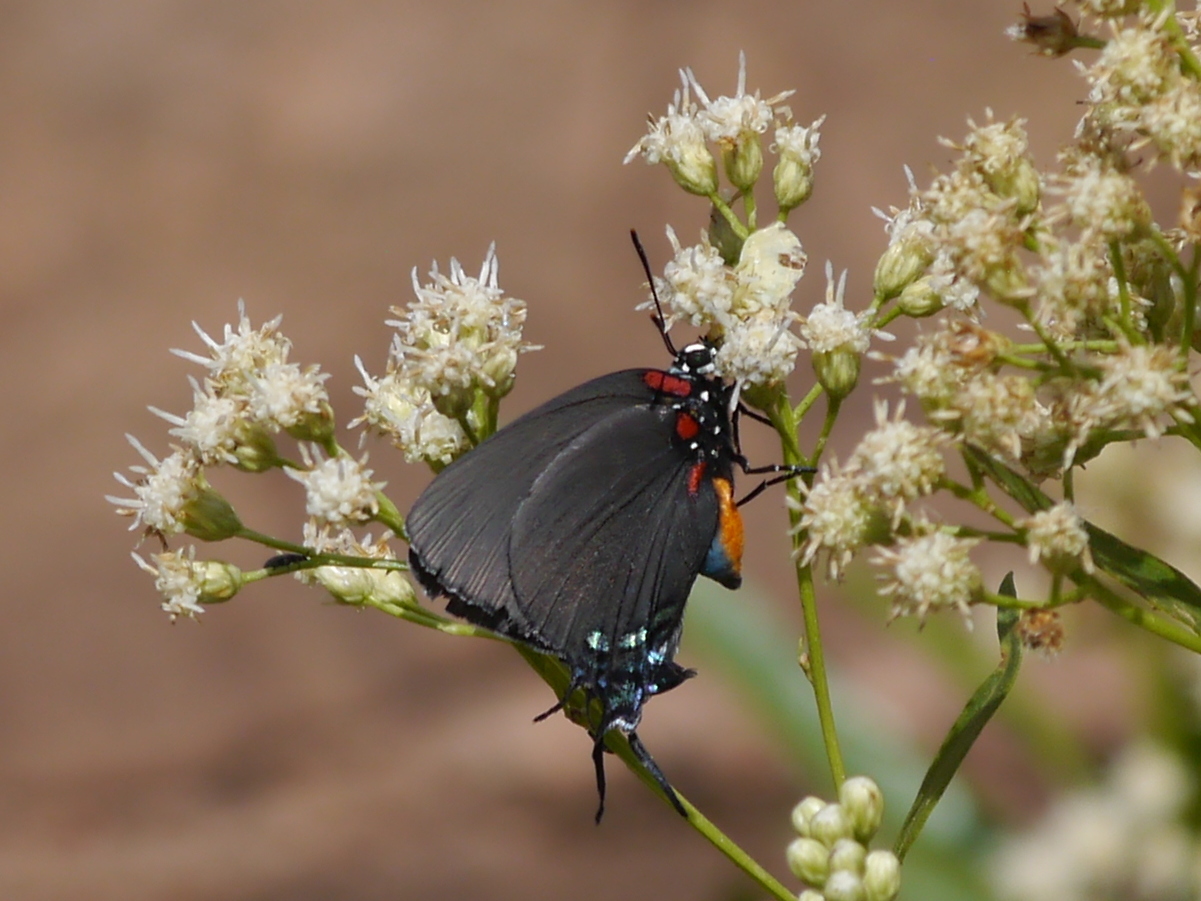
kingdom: Animalia
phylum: Arthropoda
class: Insecta
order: Lepidoptera
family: Lycaenidae
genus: Atlides
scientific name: Atlides halesus
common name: Great purple hairstreak
